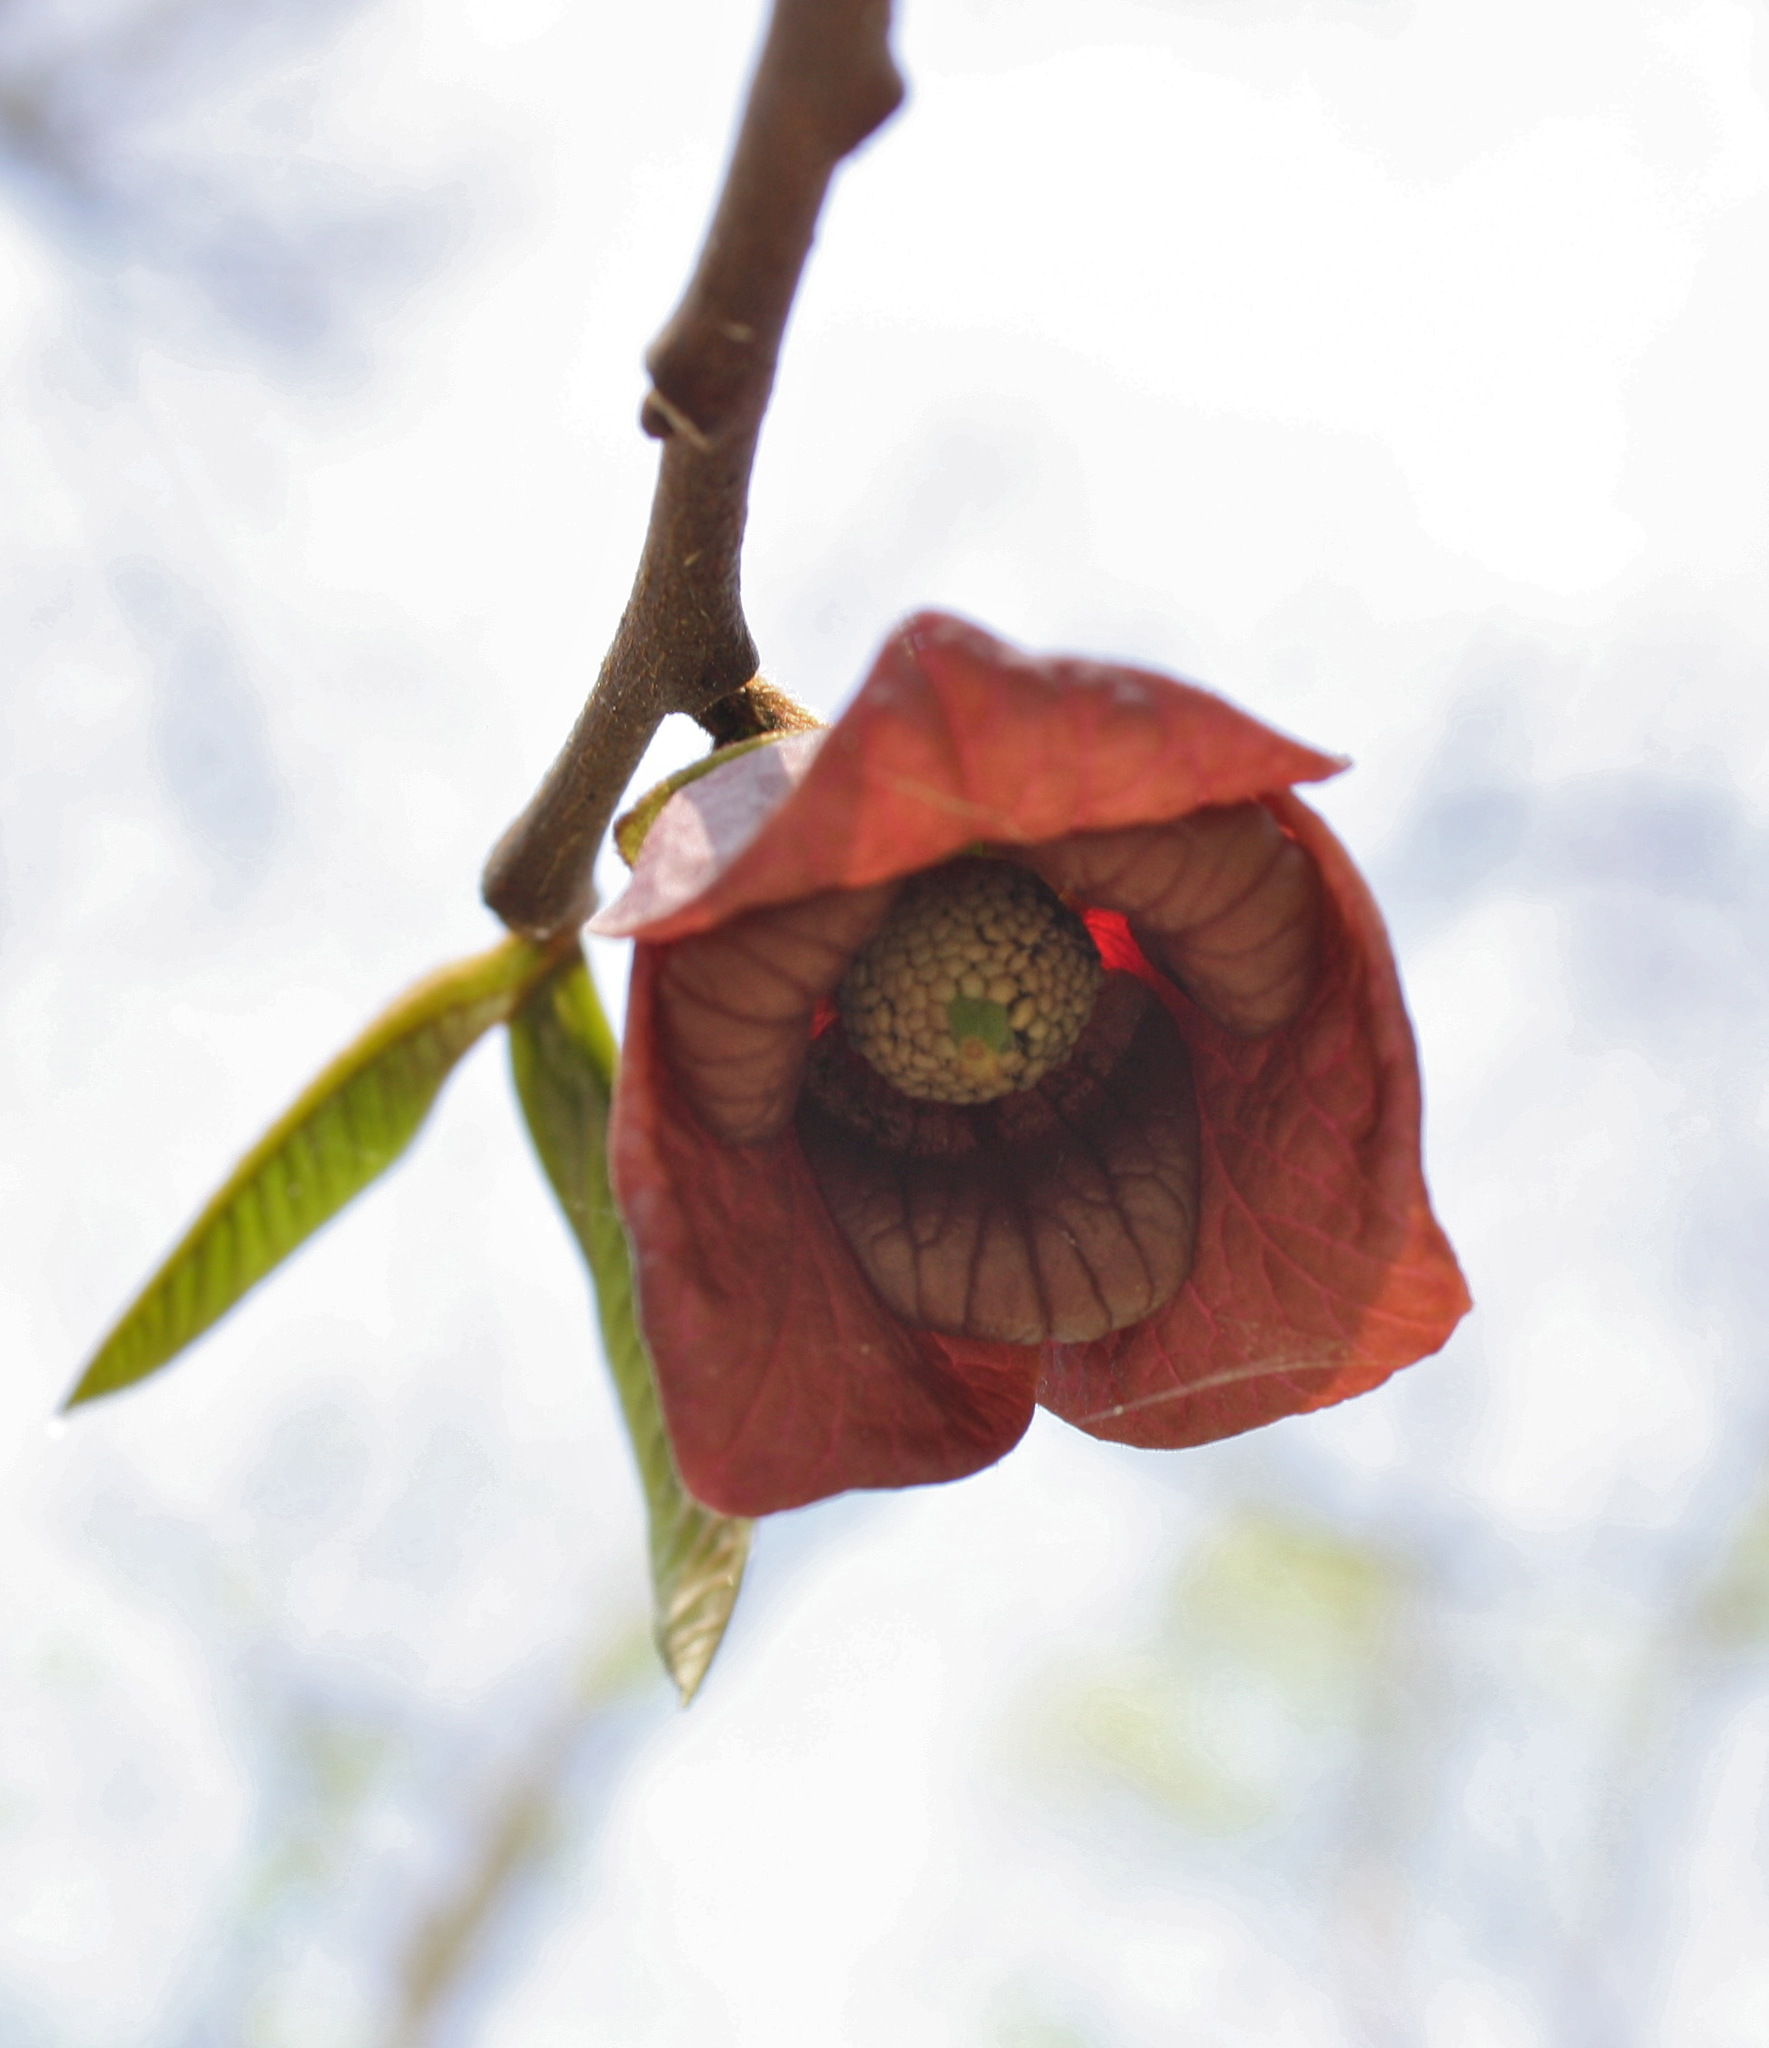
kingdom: Plantae
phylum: Tracheophyta
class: Magnoliopsida
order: Magnoliales
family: Annonaceae
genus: Asimina
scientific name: Asimina triloba
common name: Dog-banana
